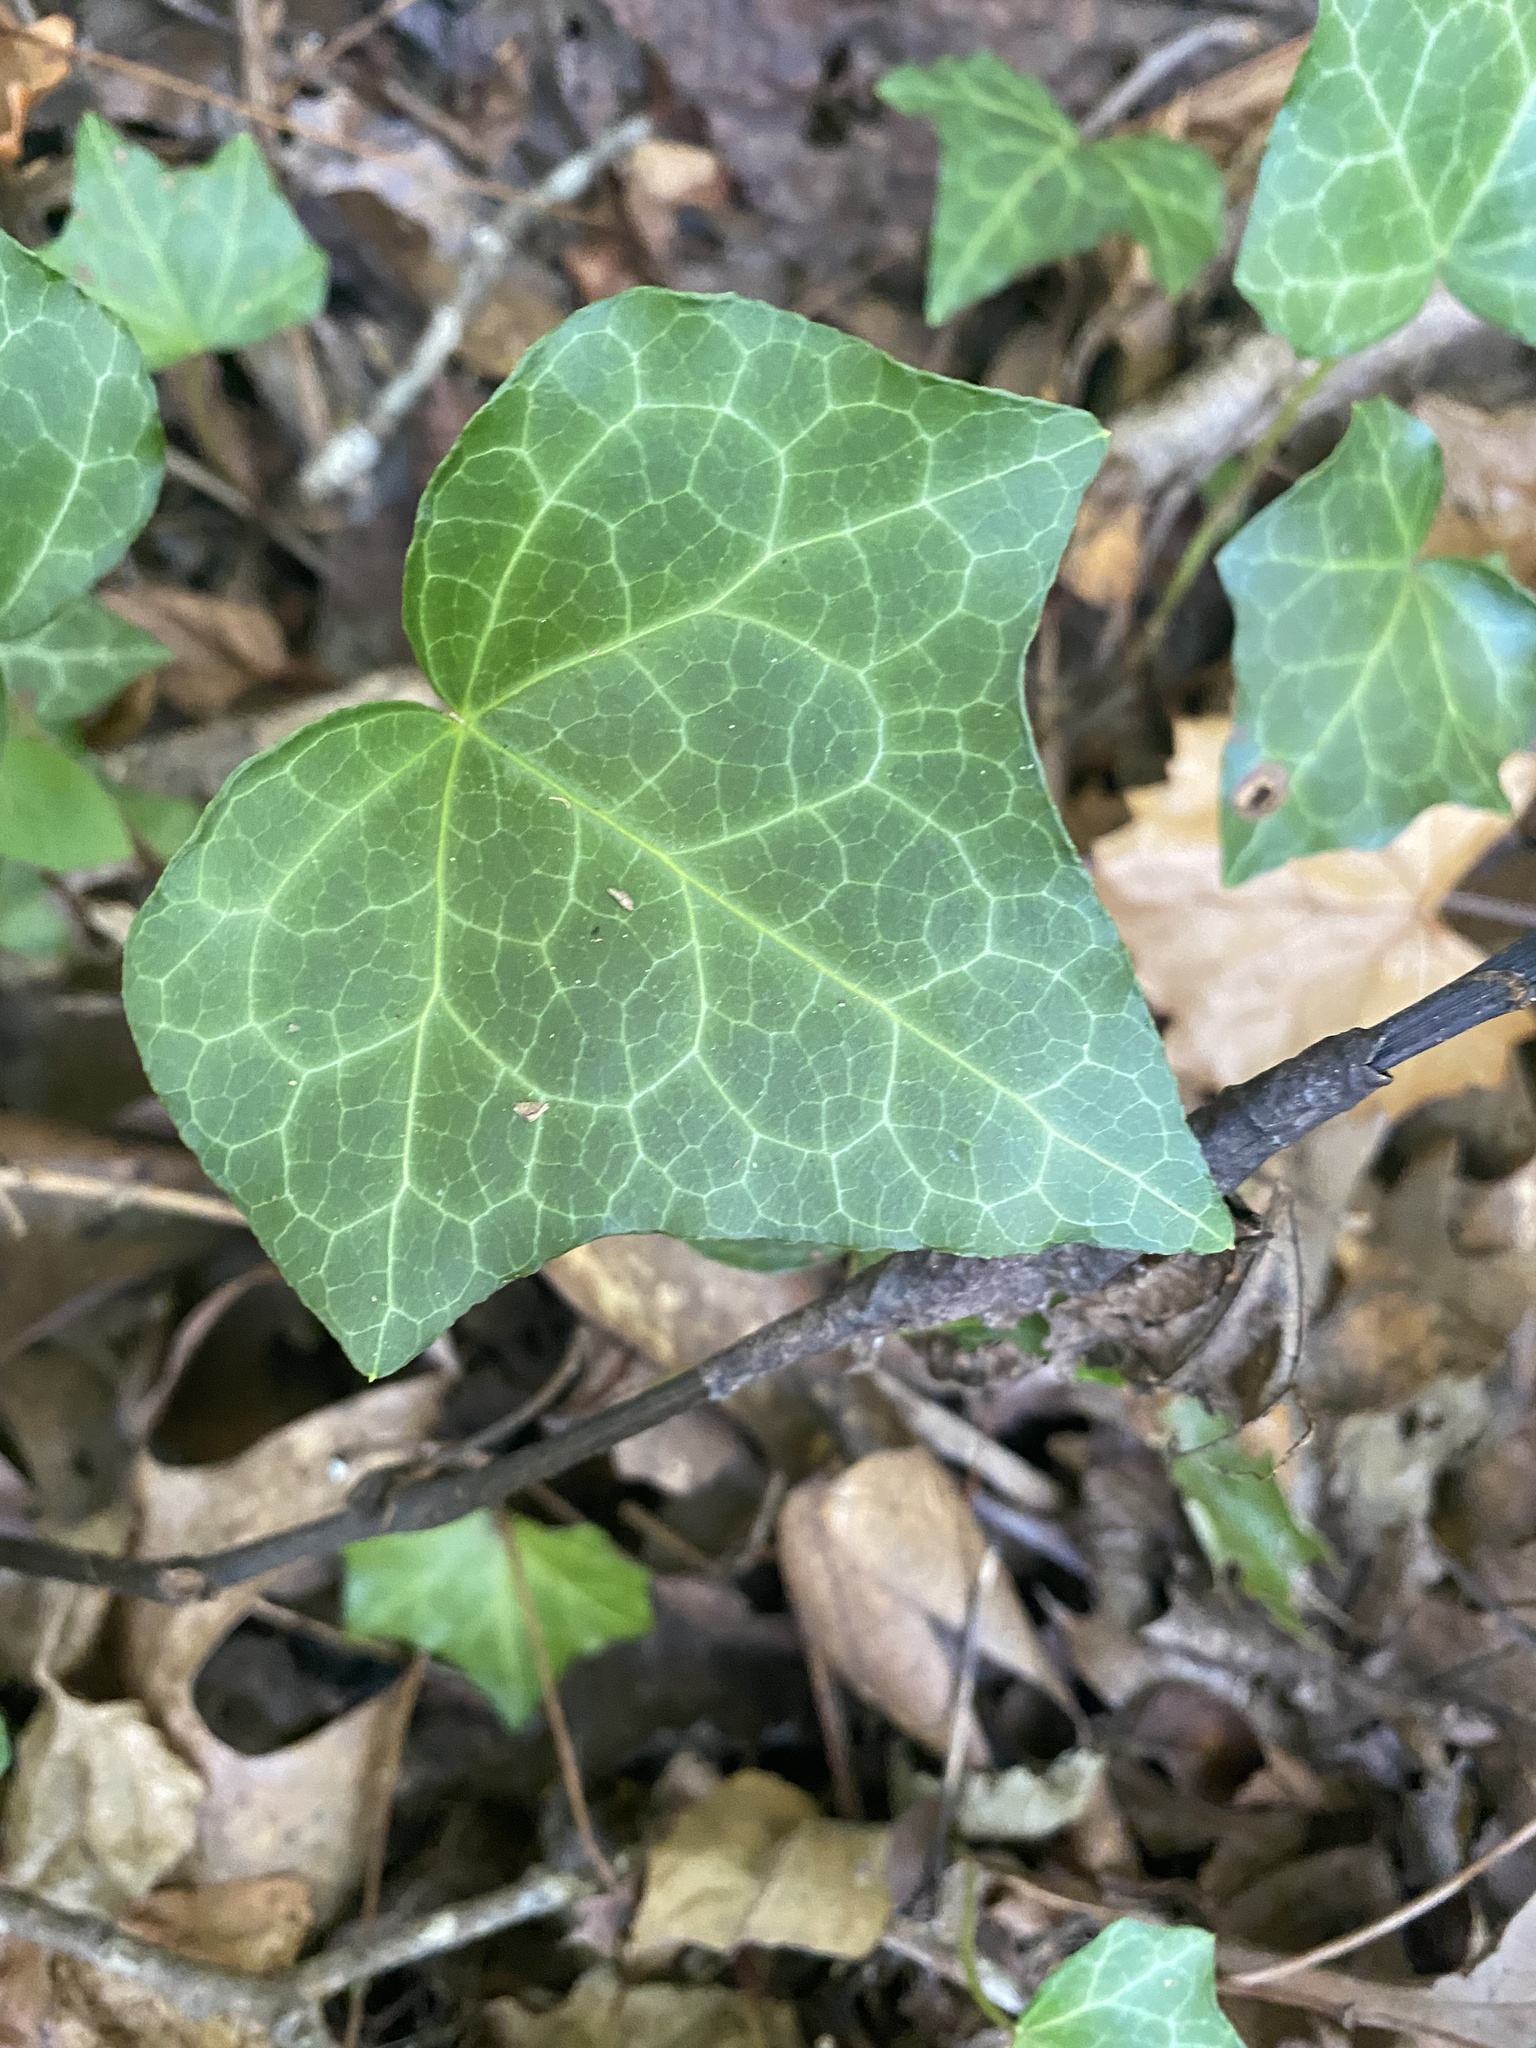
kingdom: Plantae
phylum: Tracheophyta
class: Magnoliopsida
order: Apiales
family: Araliaceae
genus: Hedera
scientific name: Hedera helix
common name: Ivy
